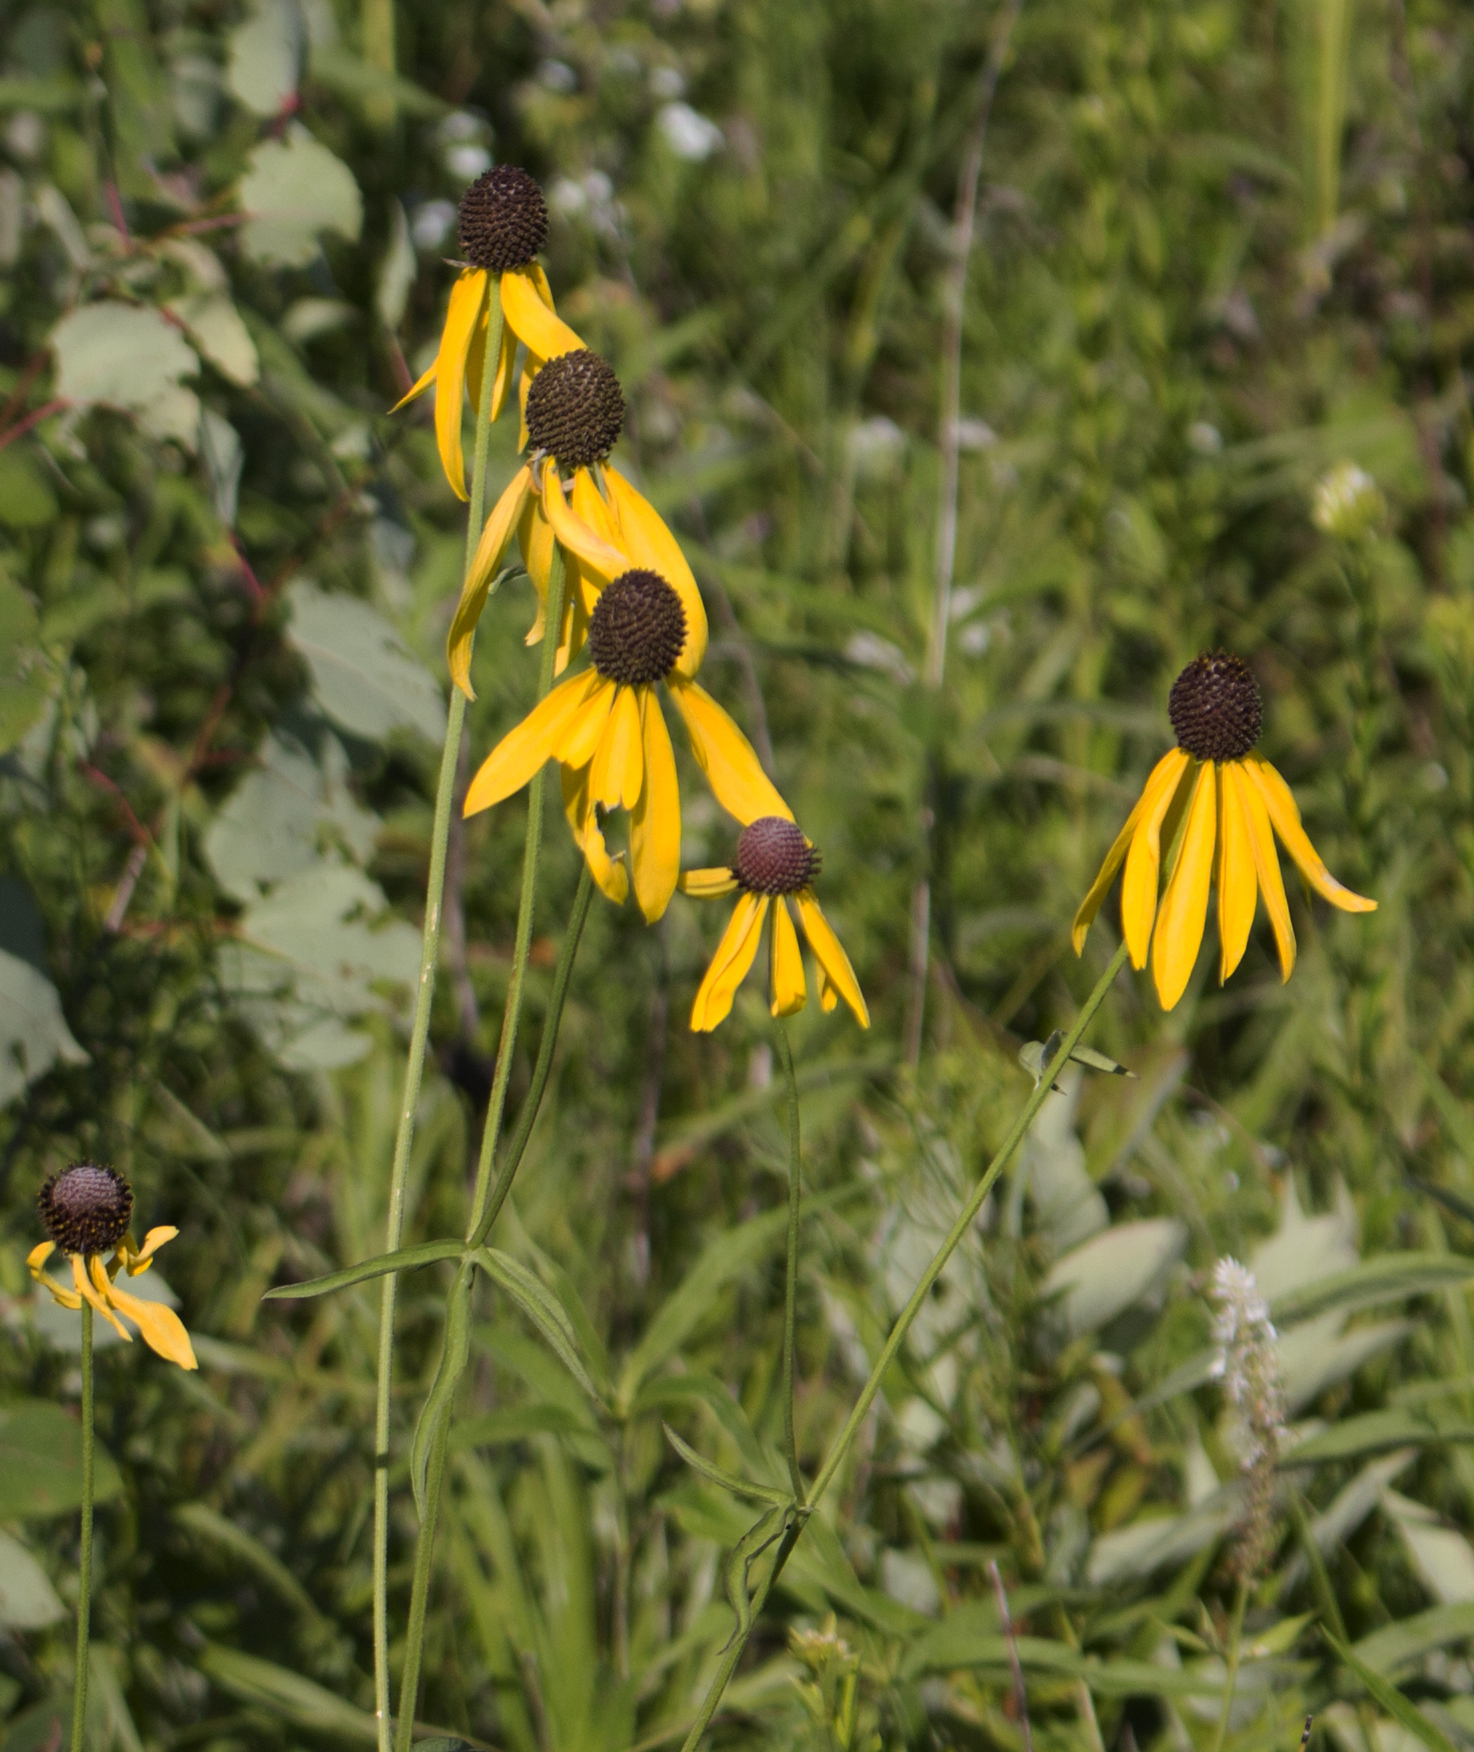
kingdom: Plantae
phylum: Tracheophyta
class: Magnoliopsida
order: Asterales
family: Asteraceae
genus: Ratibida
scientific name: Ratibida pinnata
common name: Drooping prairie-coneflower
